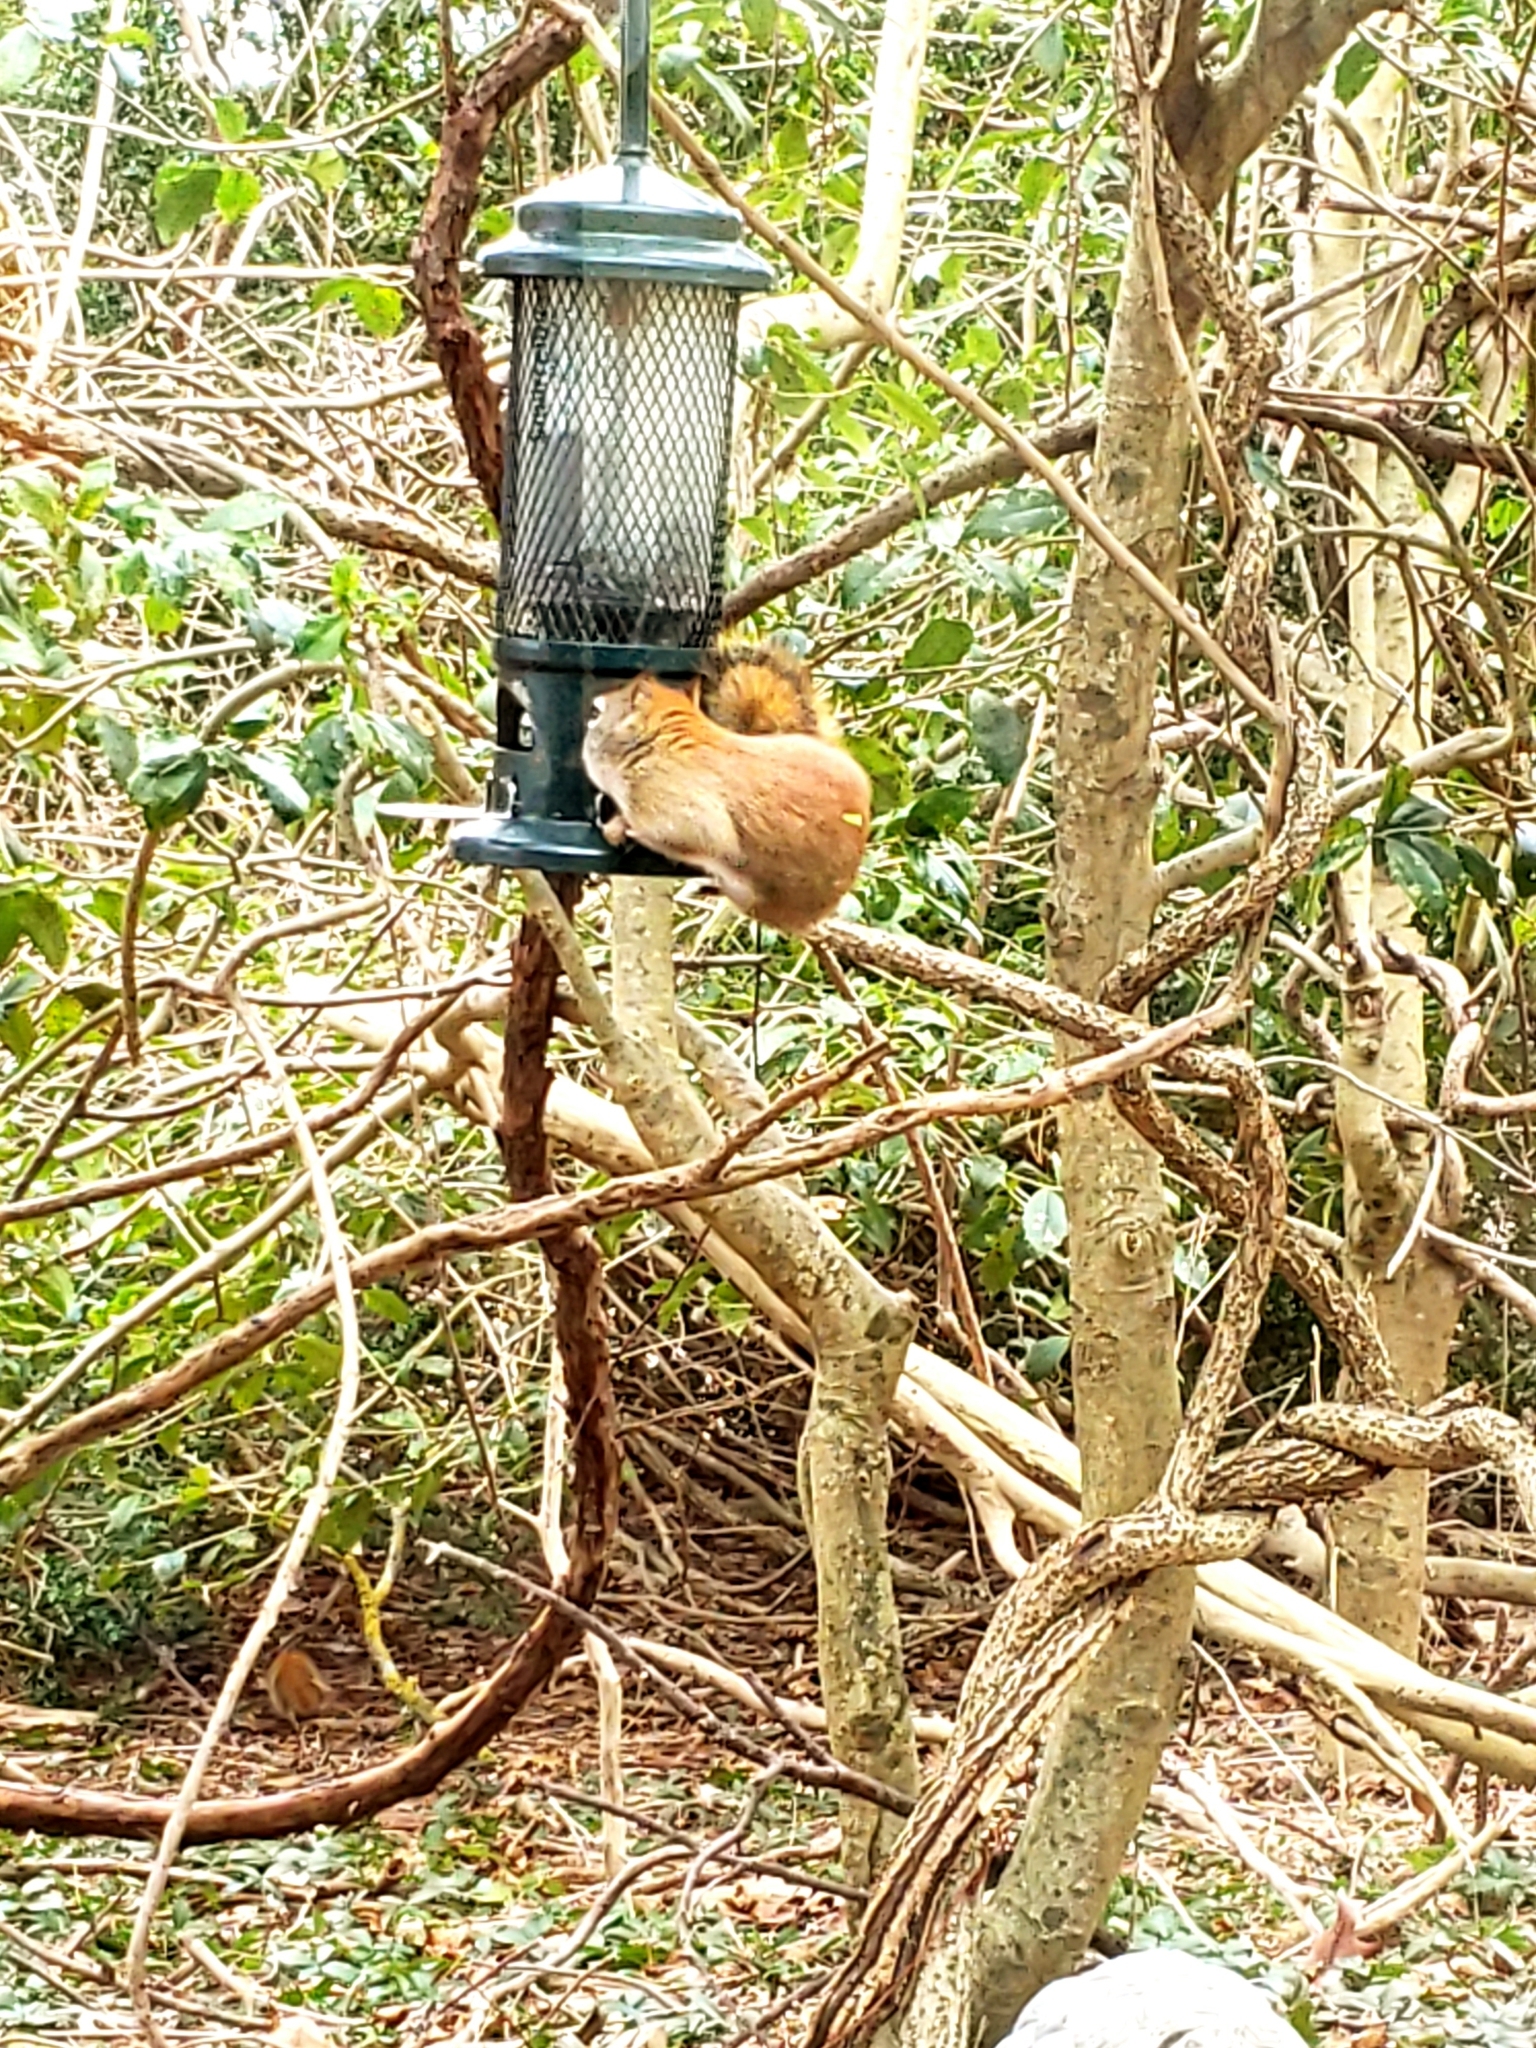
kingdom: Animalia
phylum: Chordata
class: Mammalia
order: Rodentia
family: Sciuridae
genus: Tamiasciurus
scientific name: Tamiasciurus hudsonicus
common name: Red squirrel
